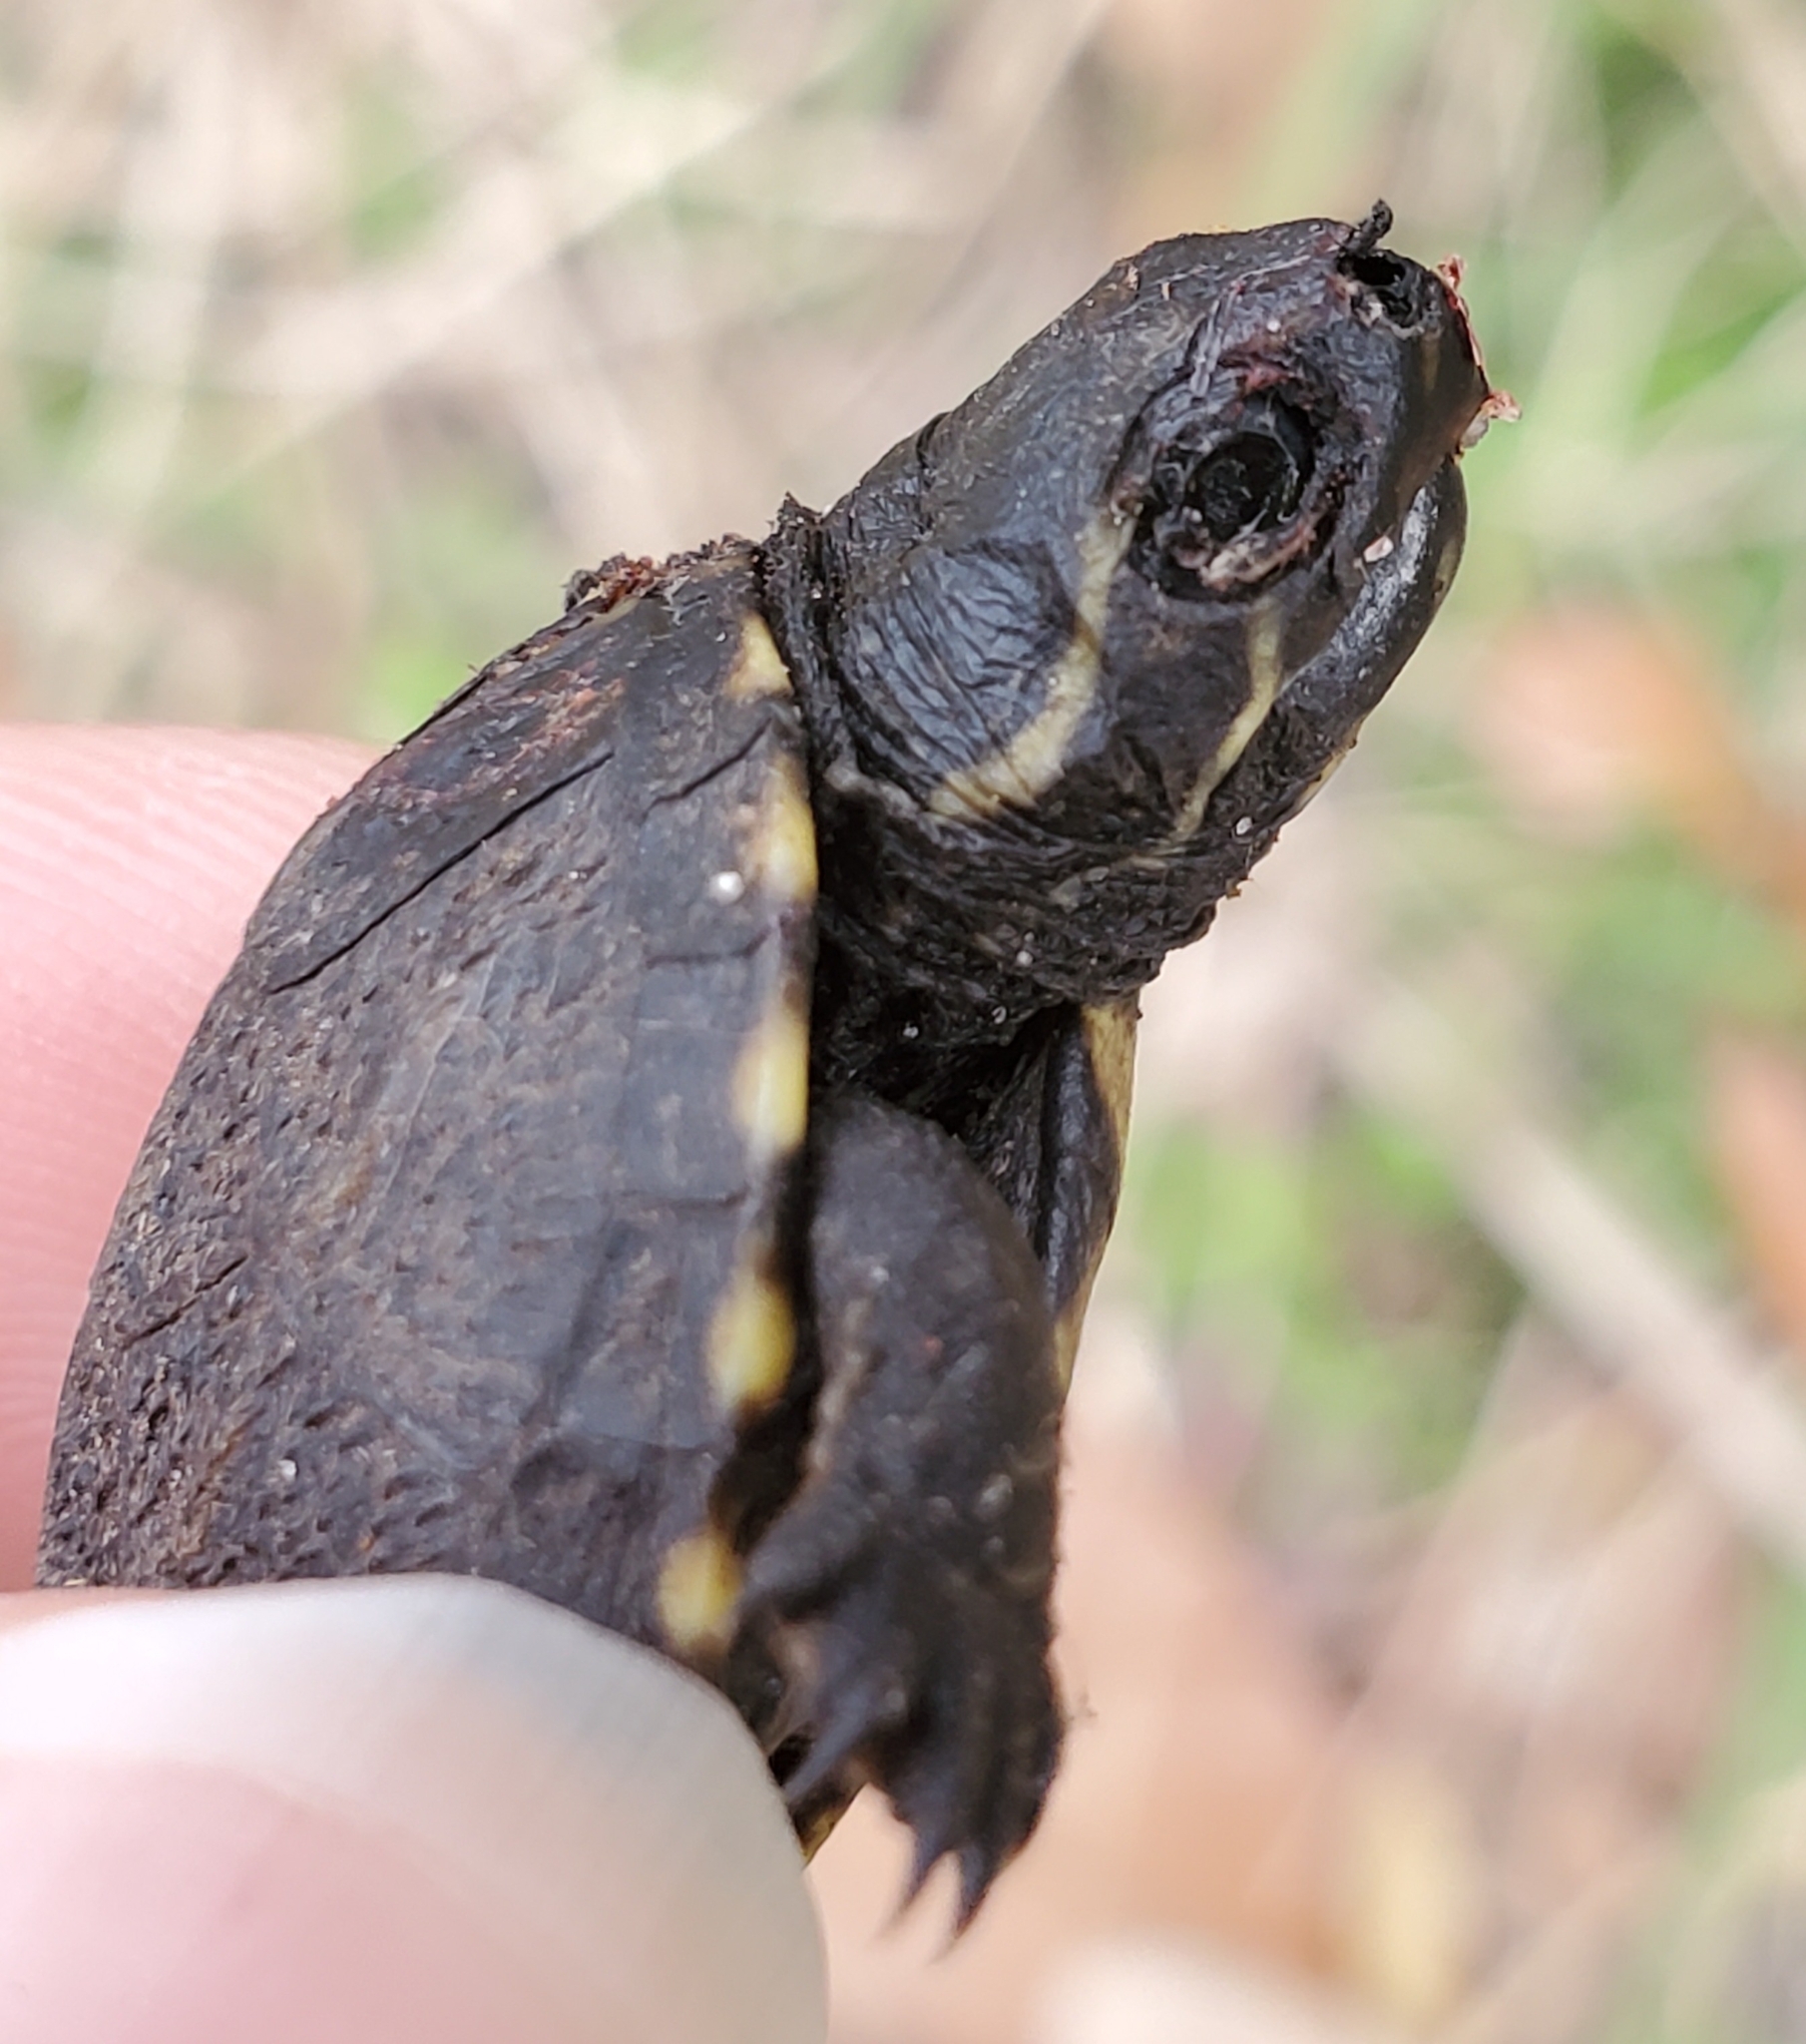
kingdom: Animalia
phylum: Chordata
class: Testudines
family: Kinosternidae
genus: Kinosternon
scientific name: Kinosternon baurii
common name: Striped mud turtle
